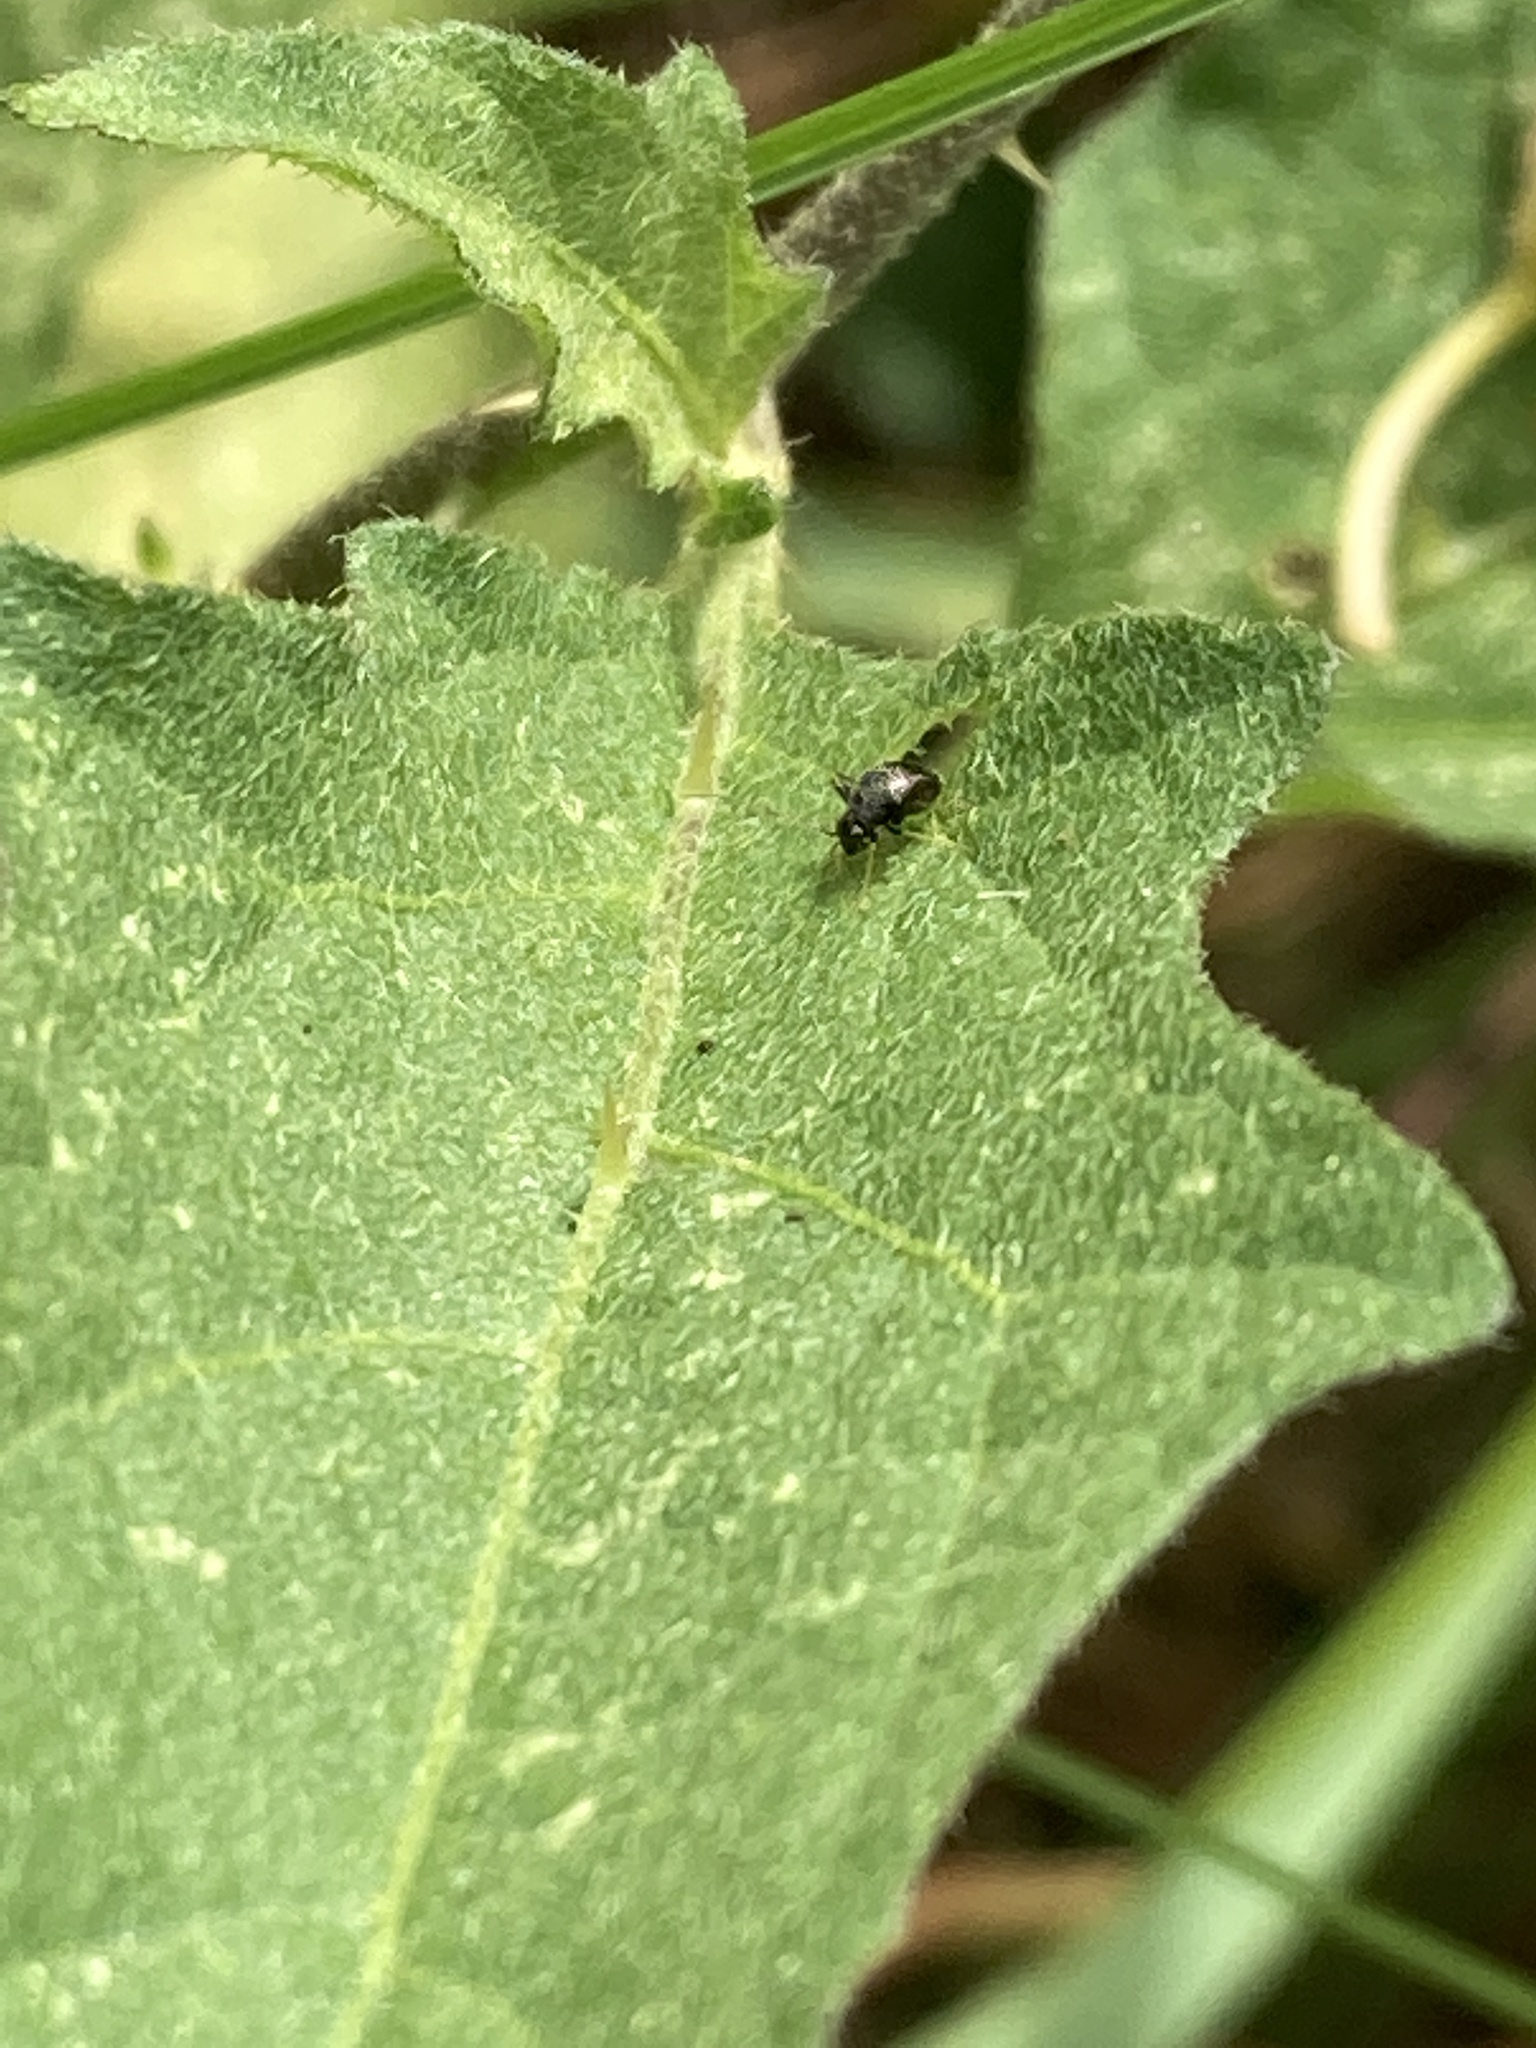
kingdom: Animalia
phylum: Arthropoda
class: Insecta
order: Hemiptera
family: Miridae
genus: Microtechnites
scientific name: Microtechnites bractatus
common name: Garden fleahopper
